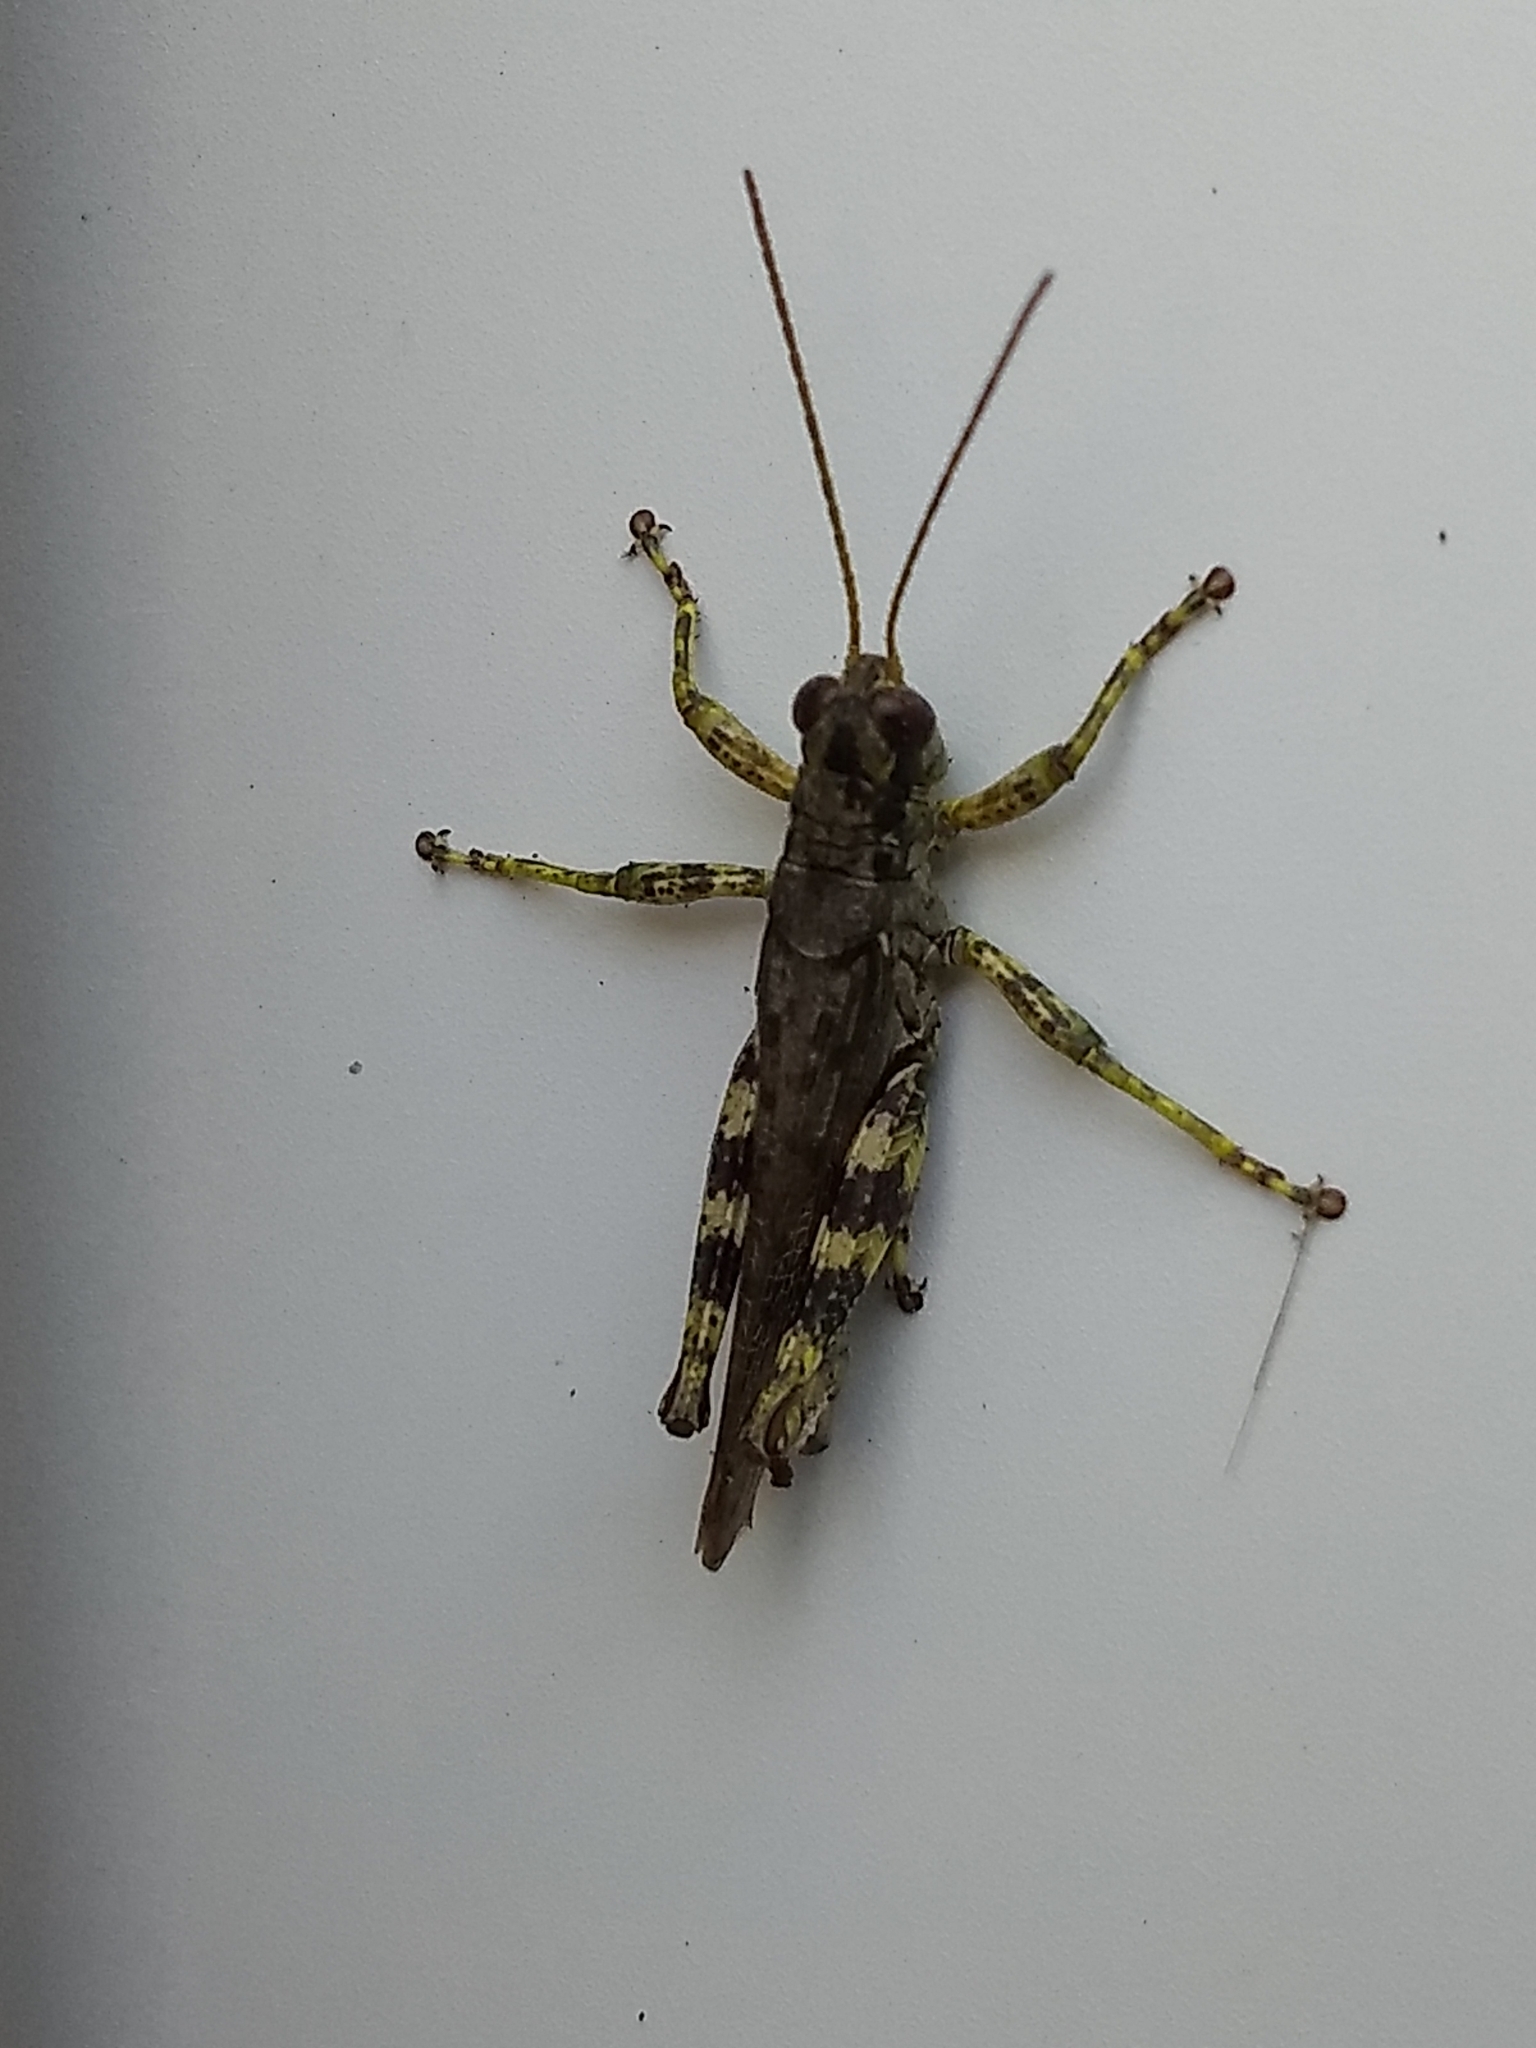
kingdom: Animalia
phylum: Arthropoda
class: Insecta
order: Orthoptera
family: Acrididae
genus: Melanoplus
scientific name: Melanoplus punctulatus
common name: Pine-tree spur-throat grasshopper
